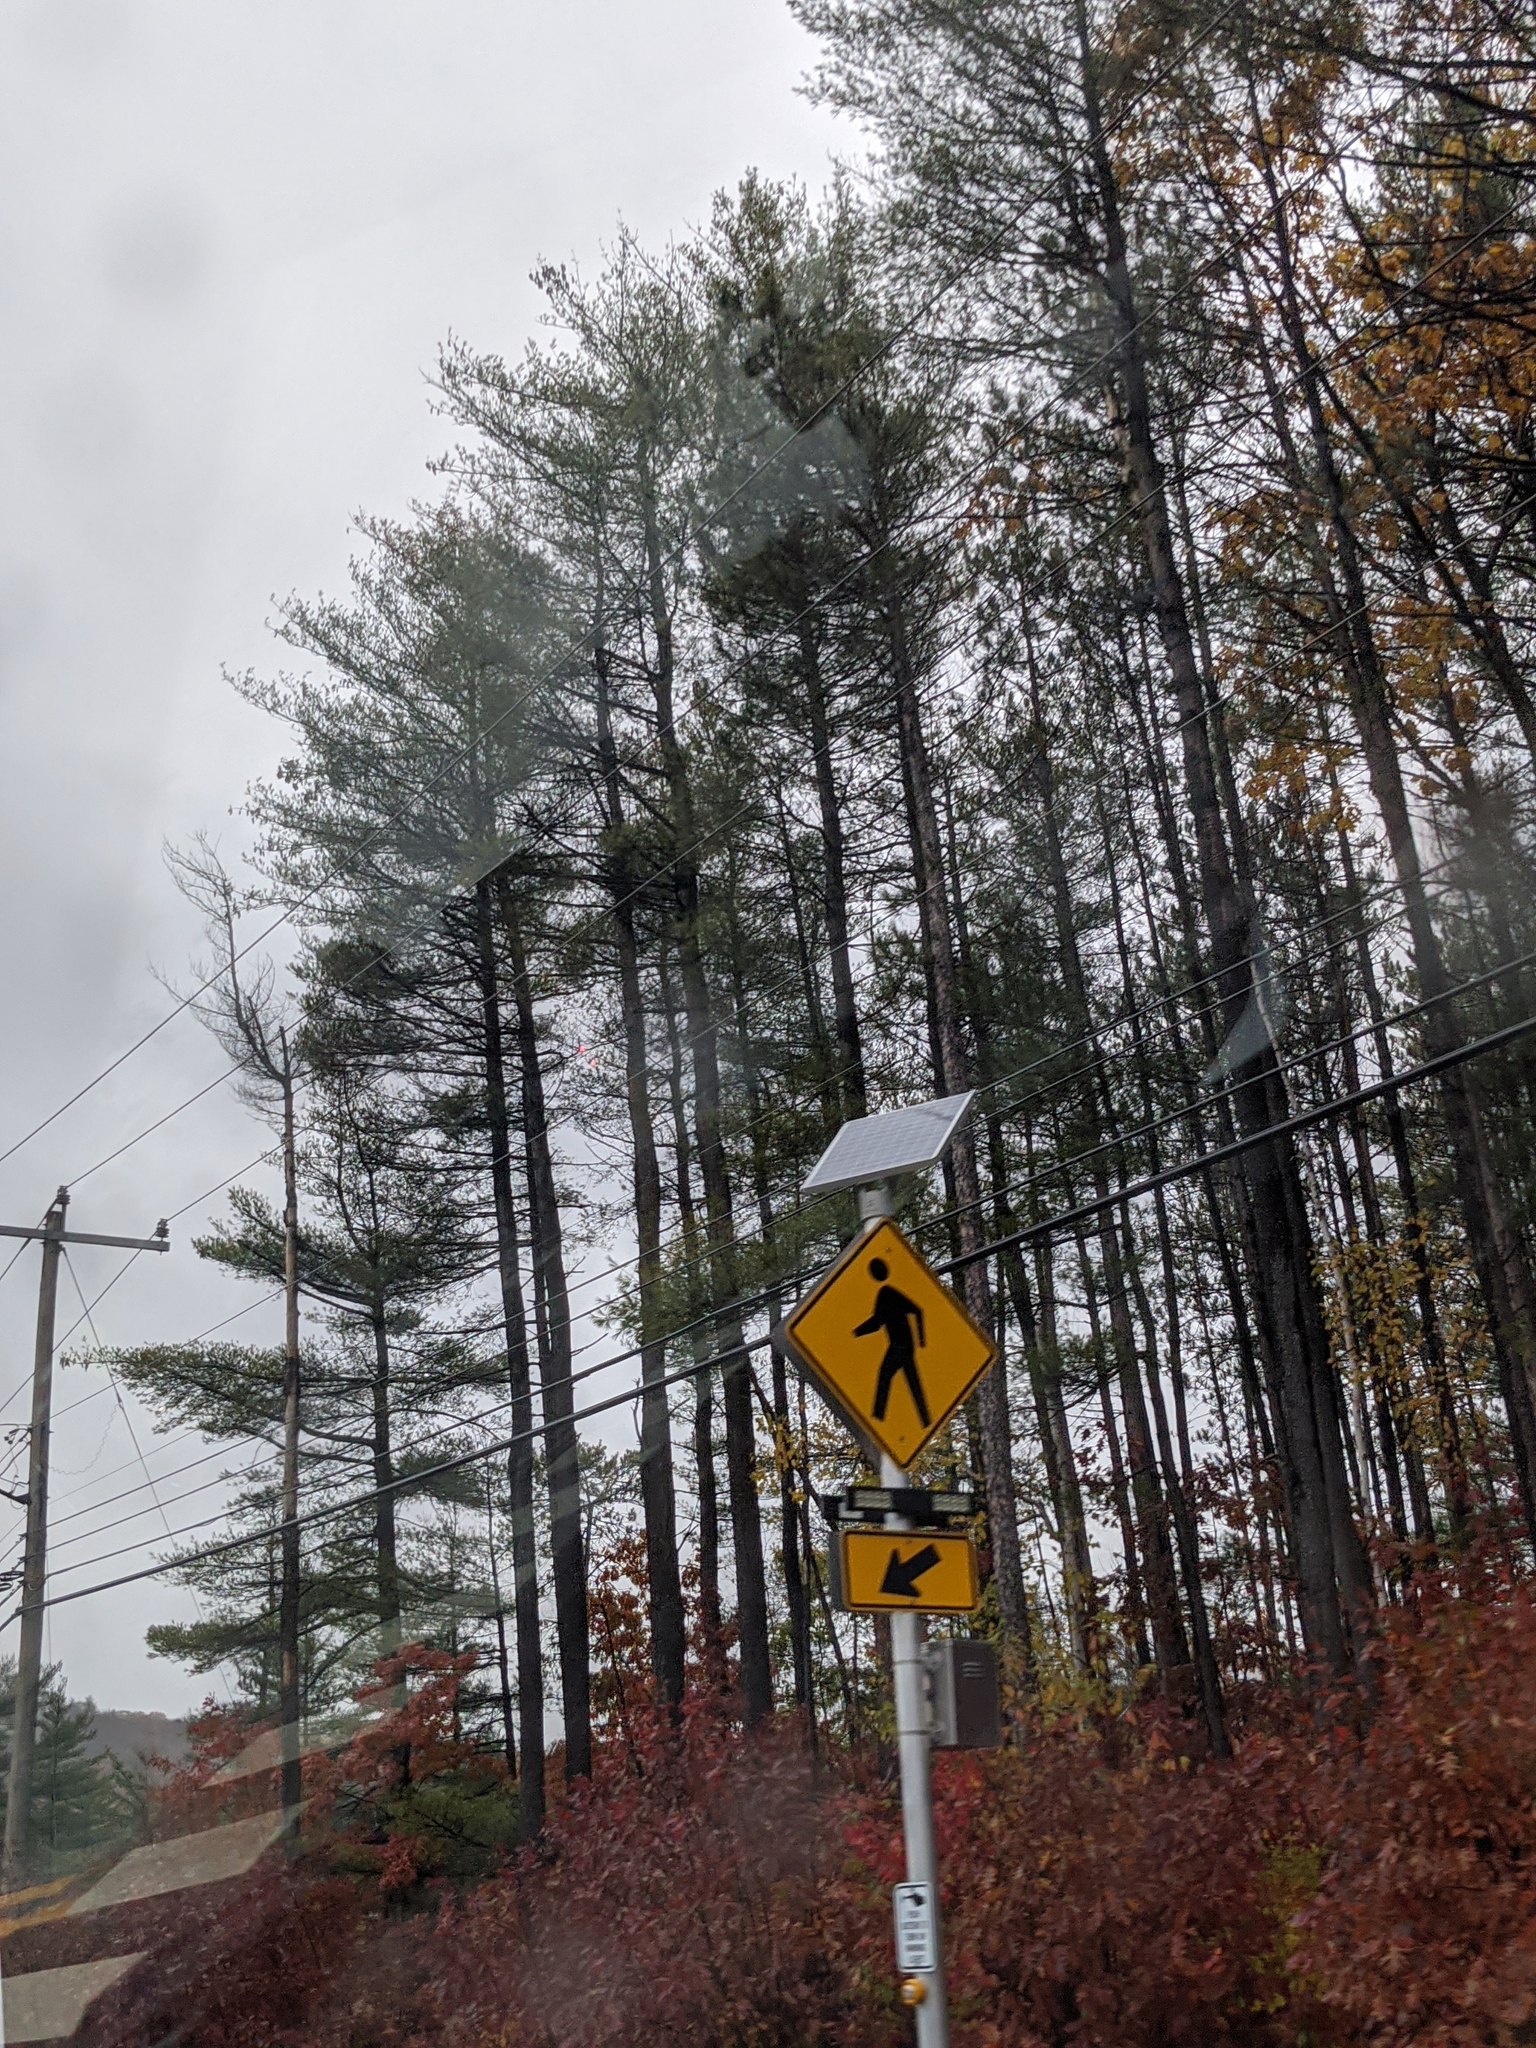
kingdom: Plantae
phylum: Tracheophyta
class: Pinopsida
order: Pinales
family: Pinaceae
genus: Pinus
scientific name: Pinus strobus
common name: Weymouth pine
